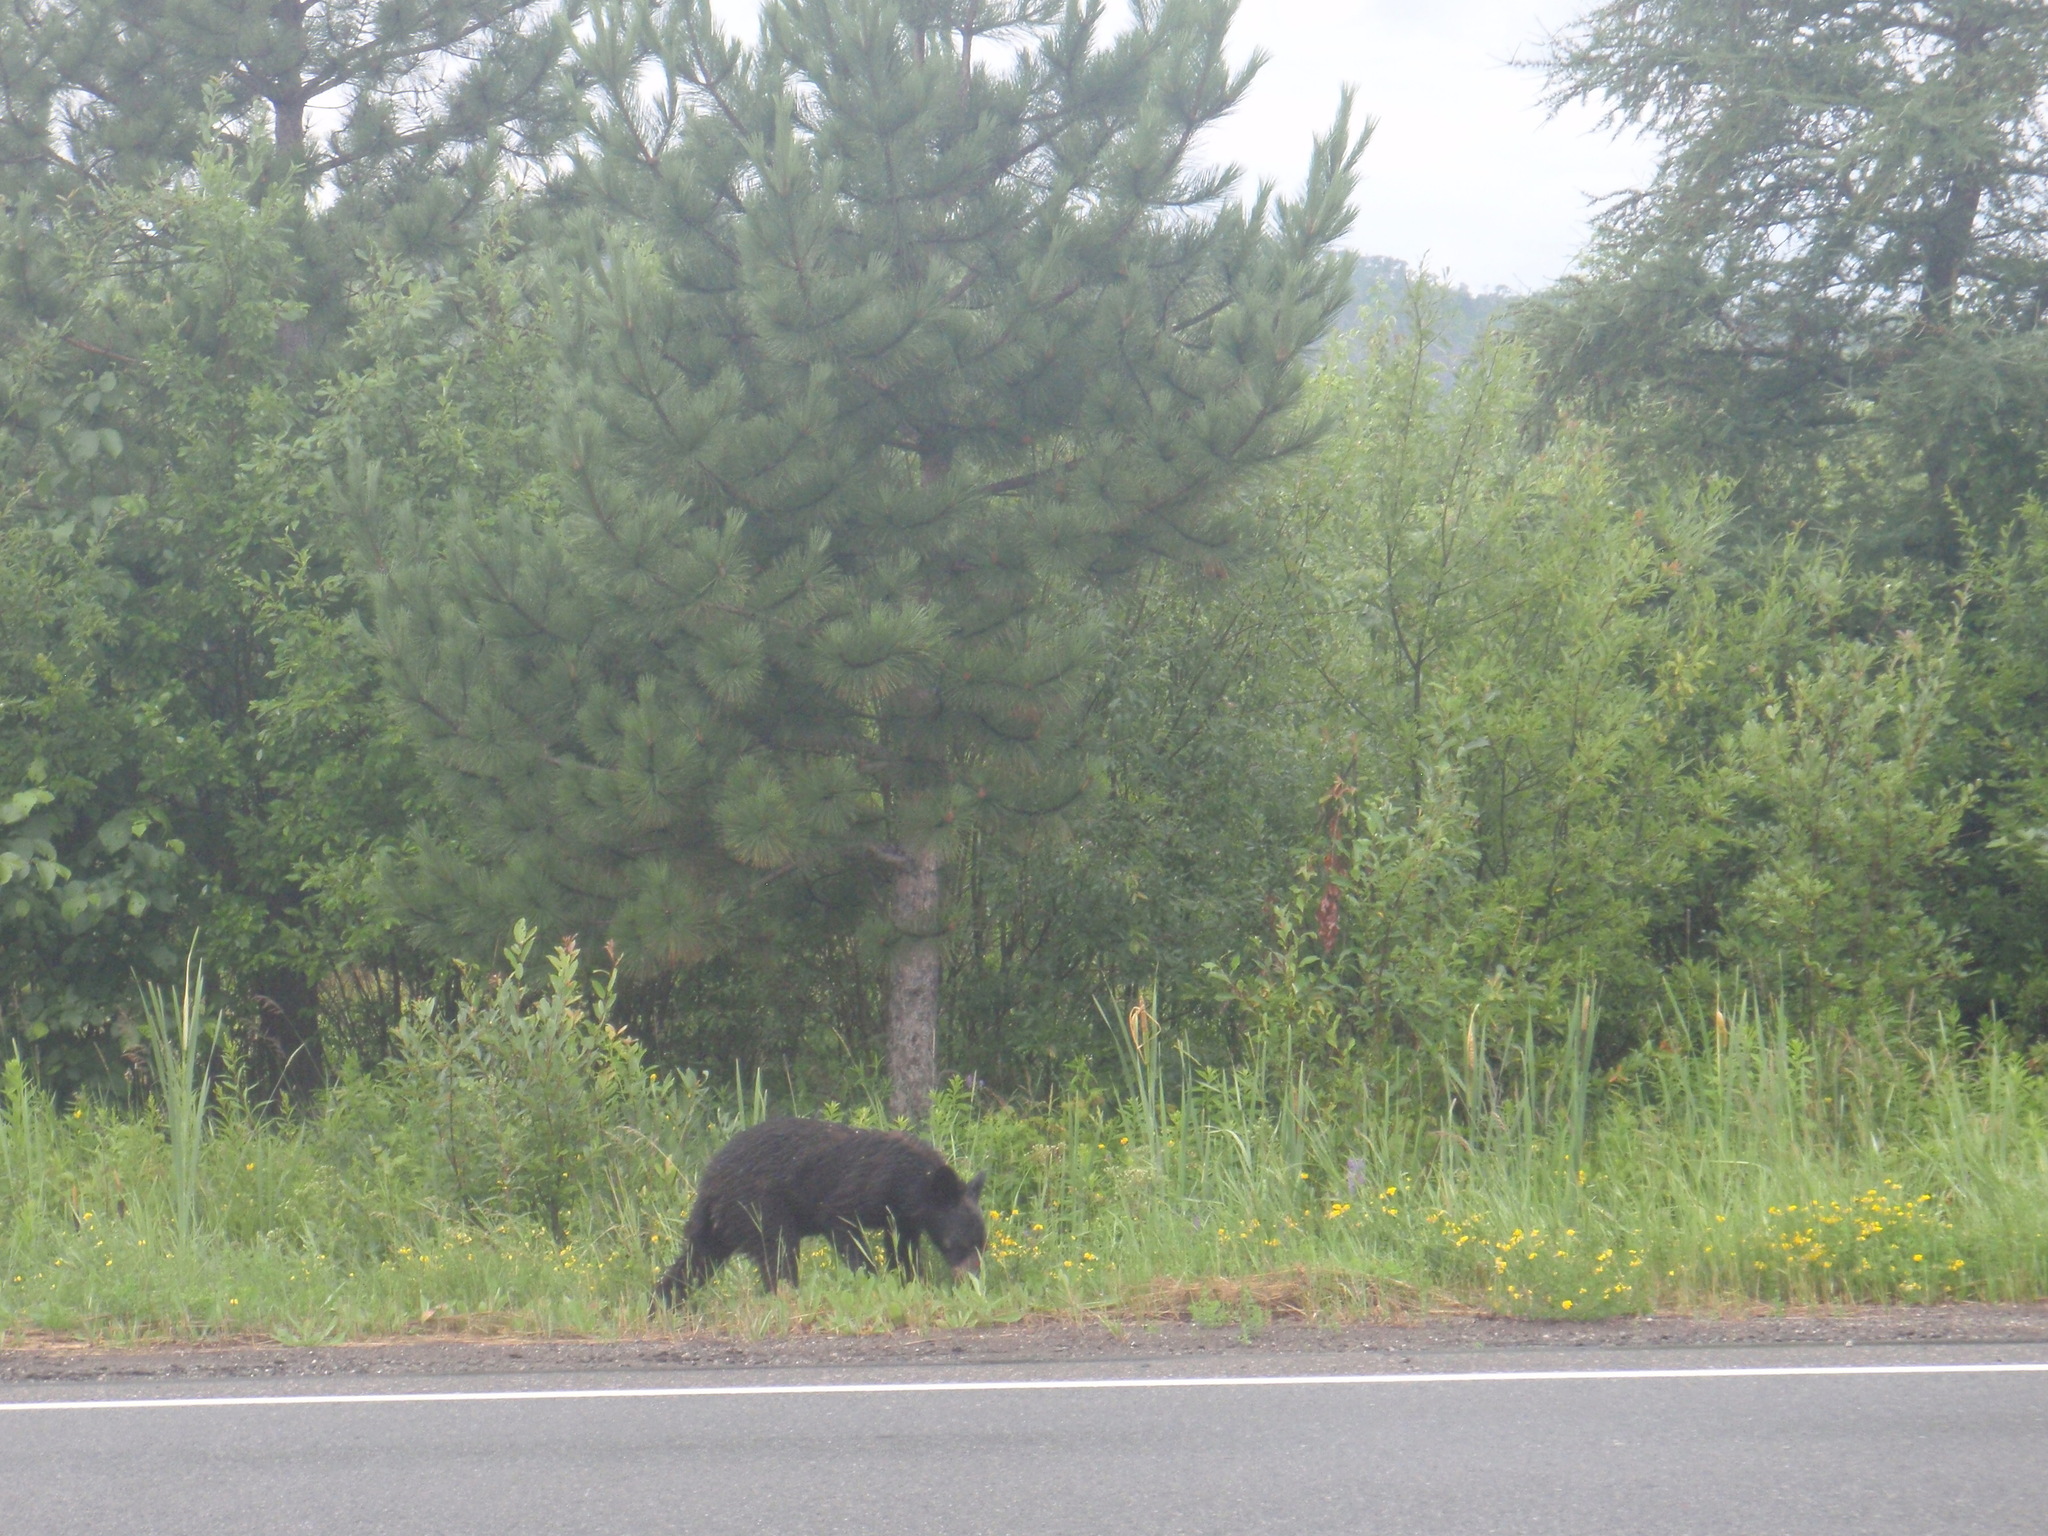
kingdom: Animalia
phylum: Chordata
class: Mammalia
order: Carnivora
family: Ursidae
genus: Ursus
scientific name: Ursus americanus
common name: American black bear
